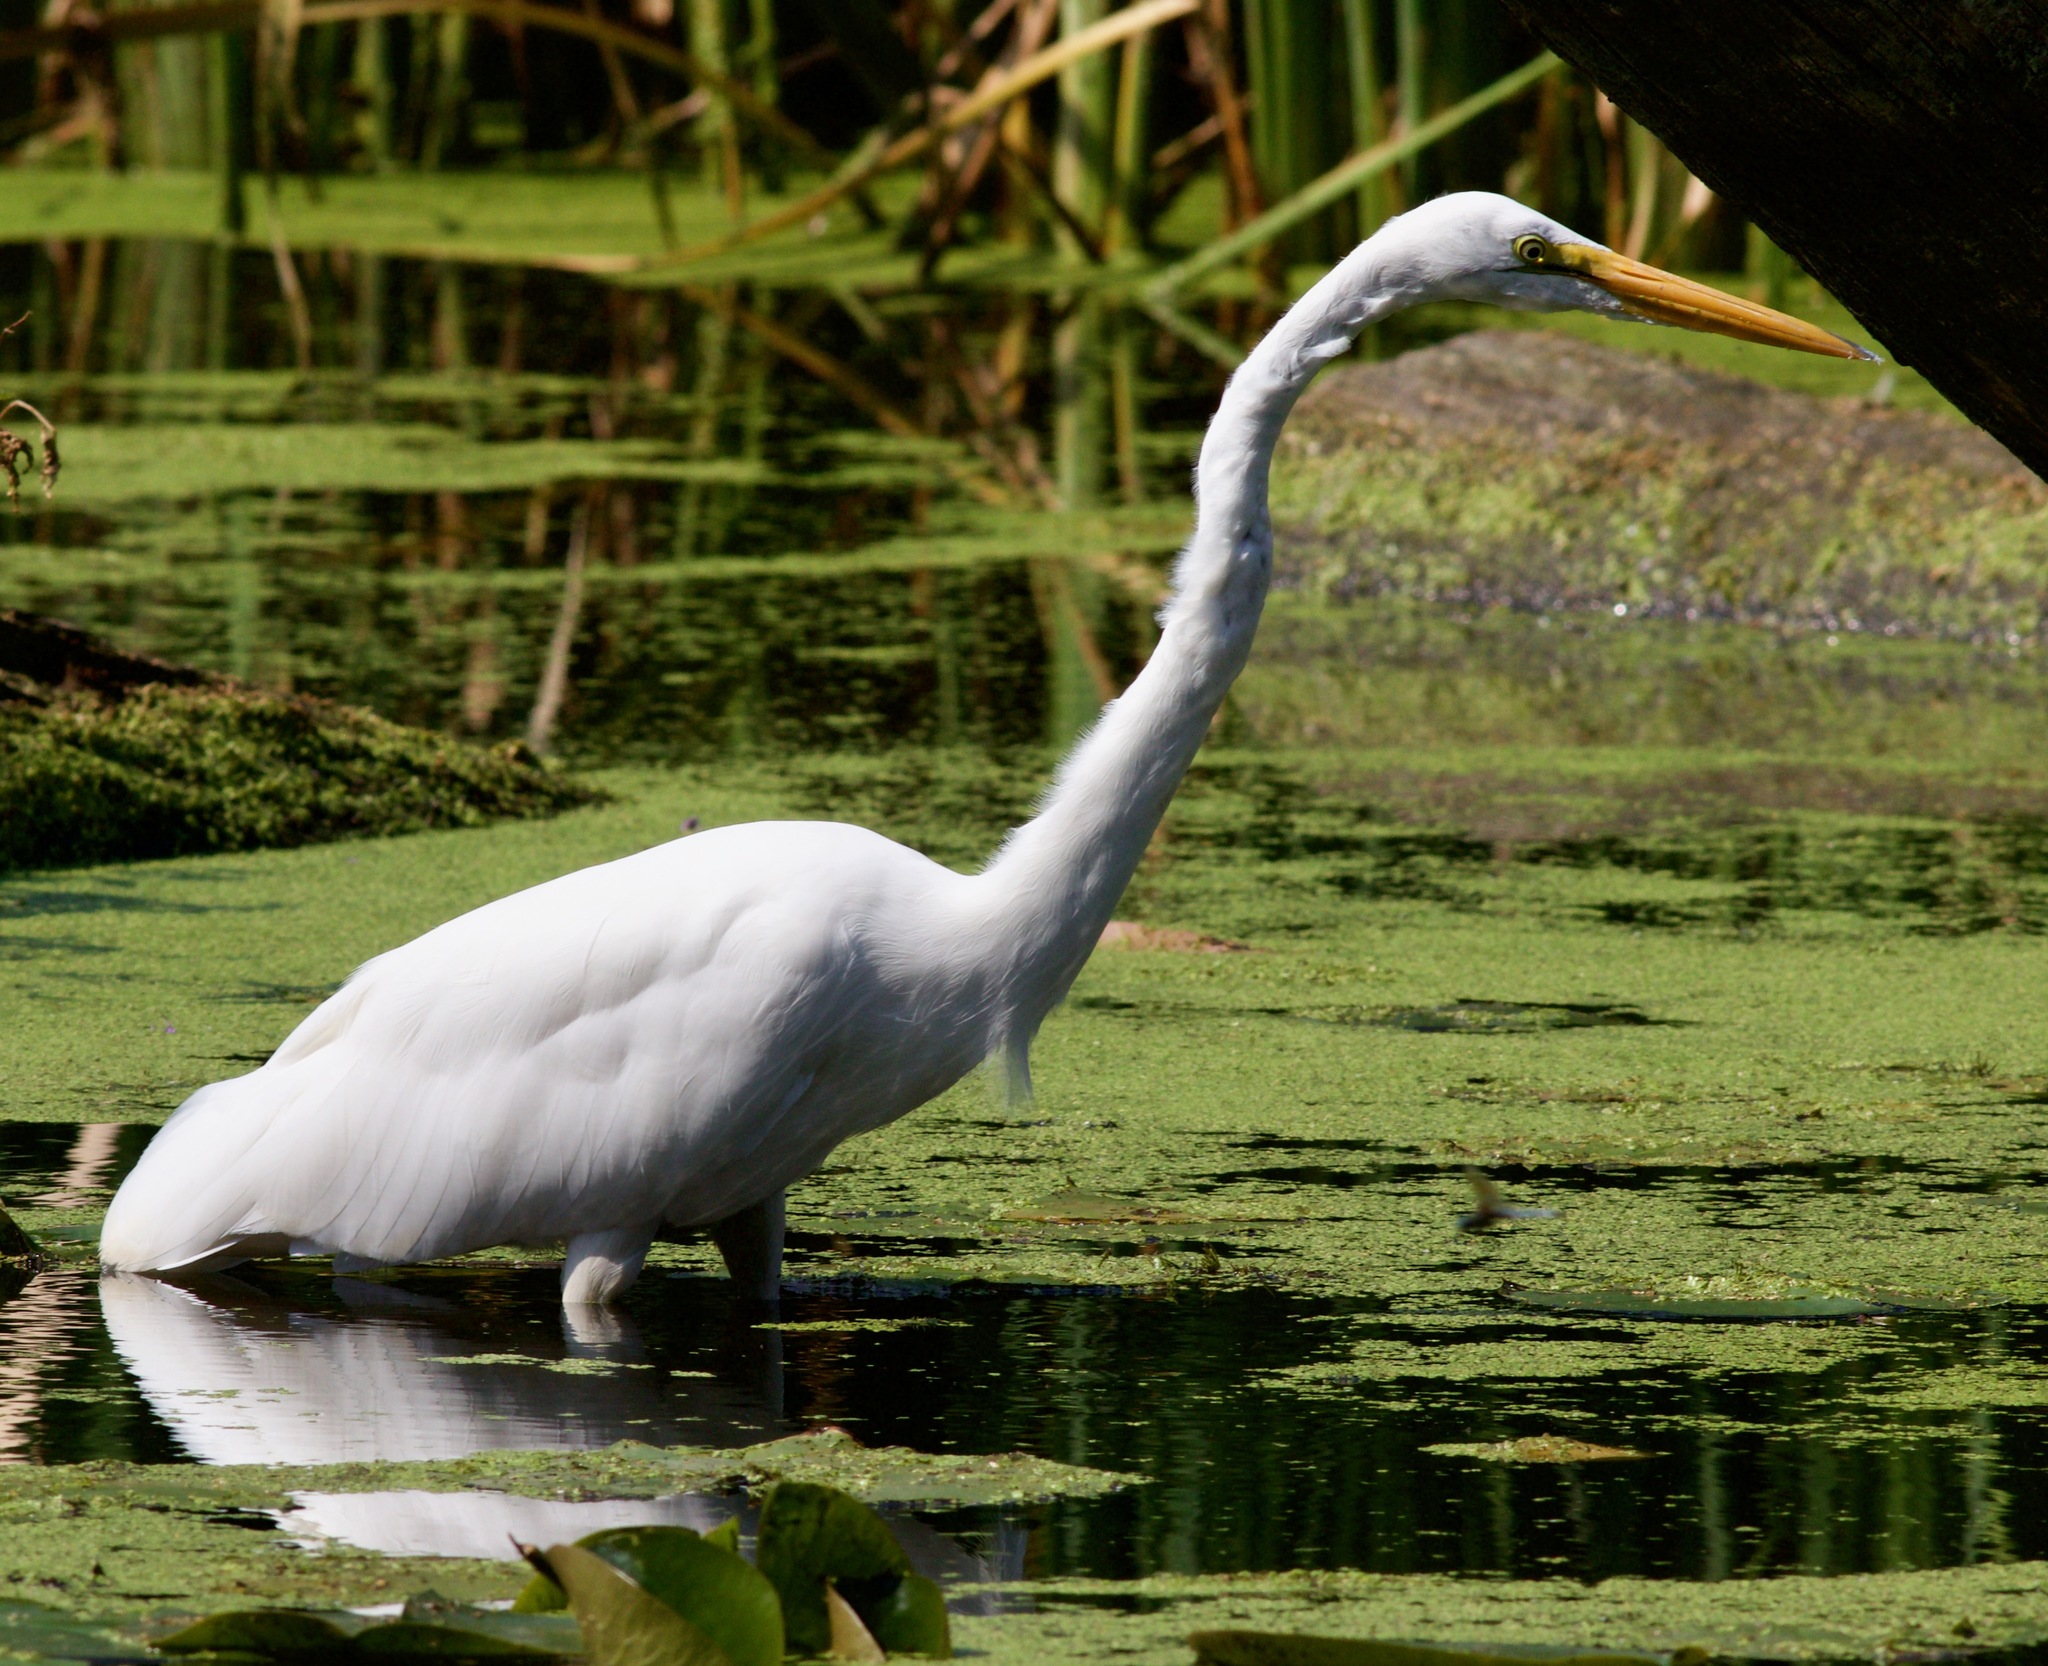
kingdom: Animalia
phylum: Chordata
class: Aves
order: Pelecaniformes
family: Ardeidae
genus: Ardea
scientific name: Ardea alba
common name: Great egret
